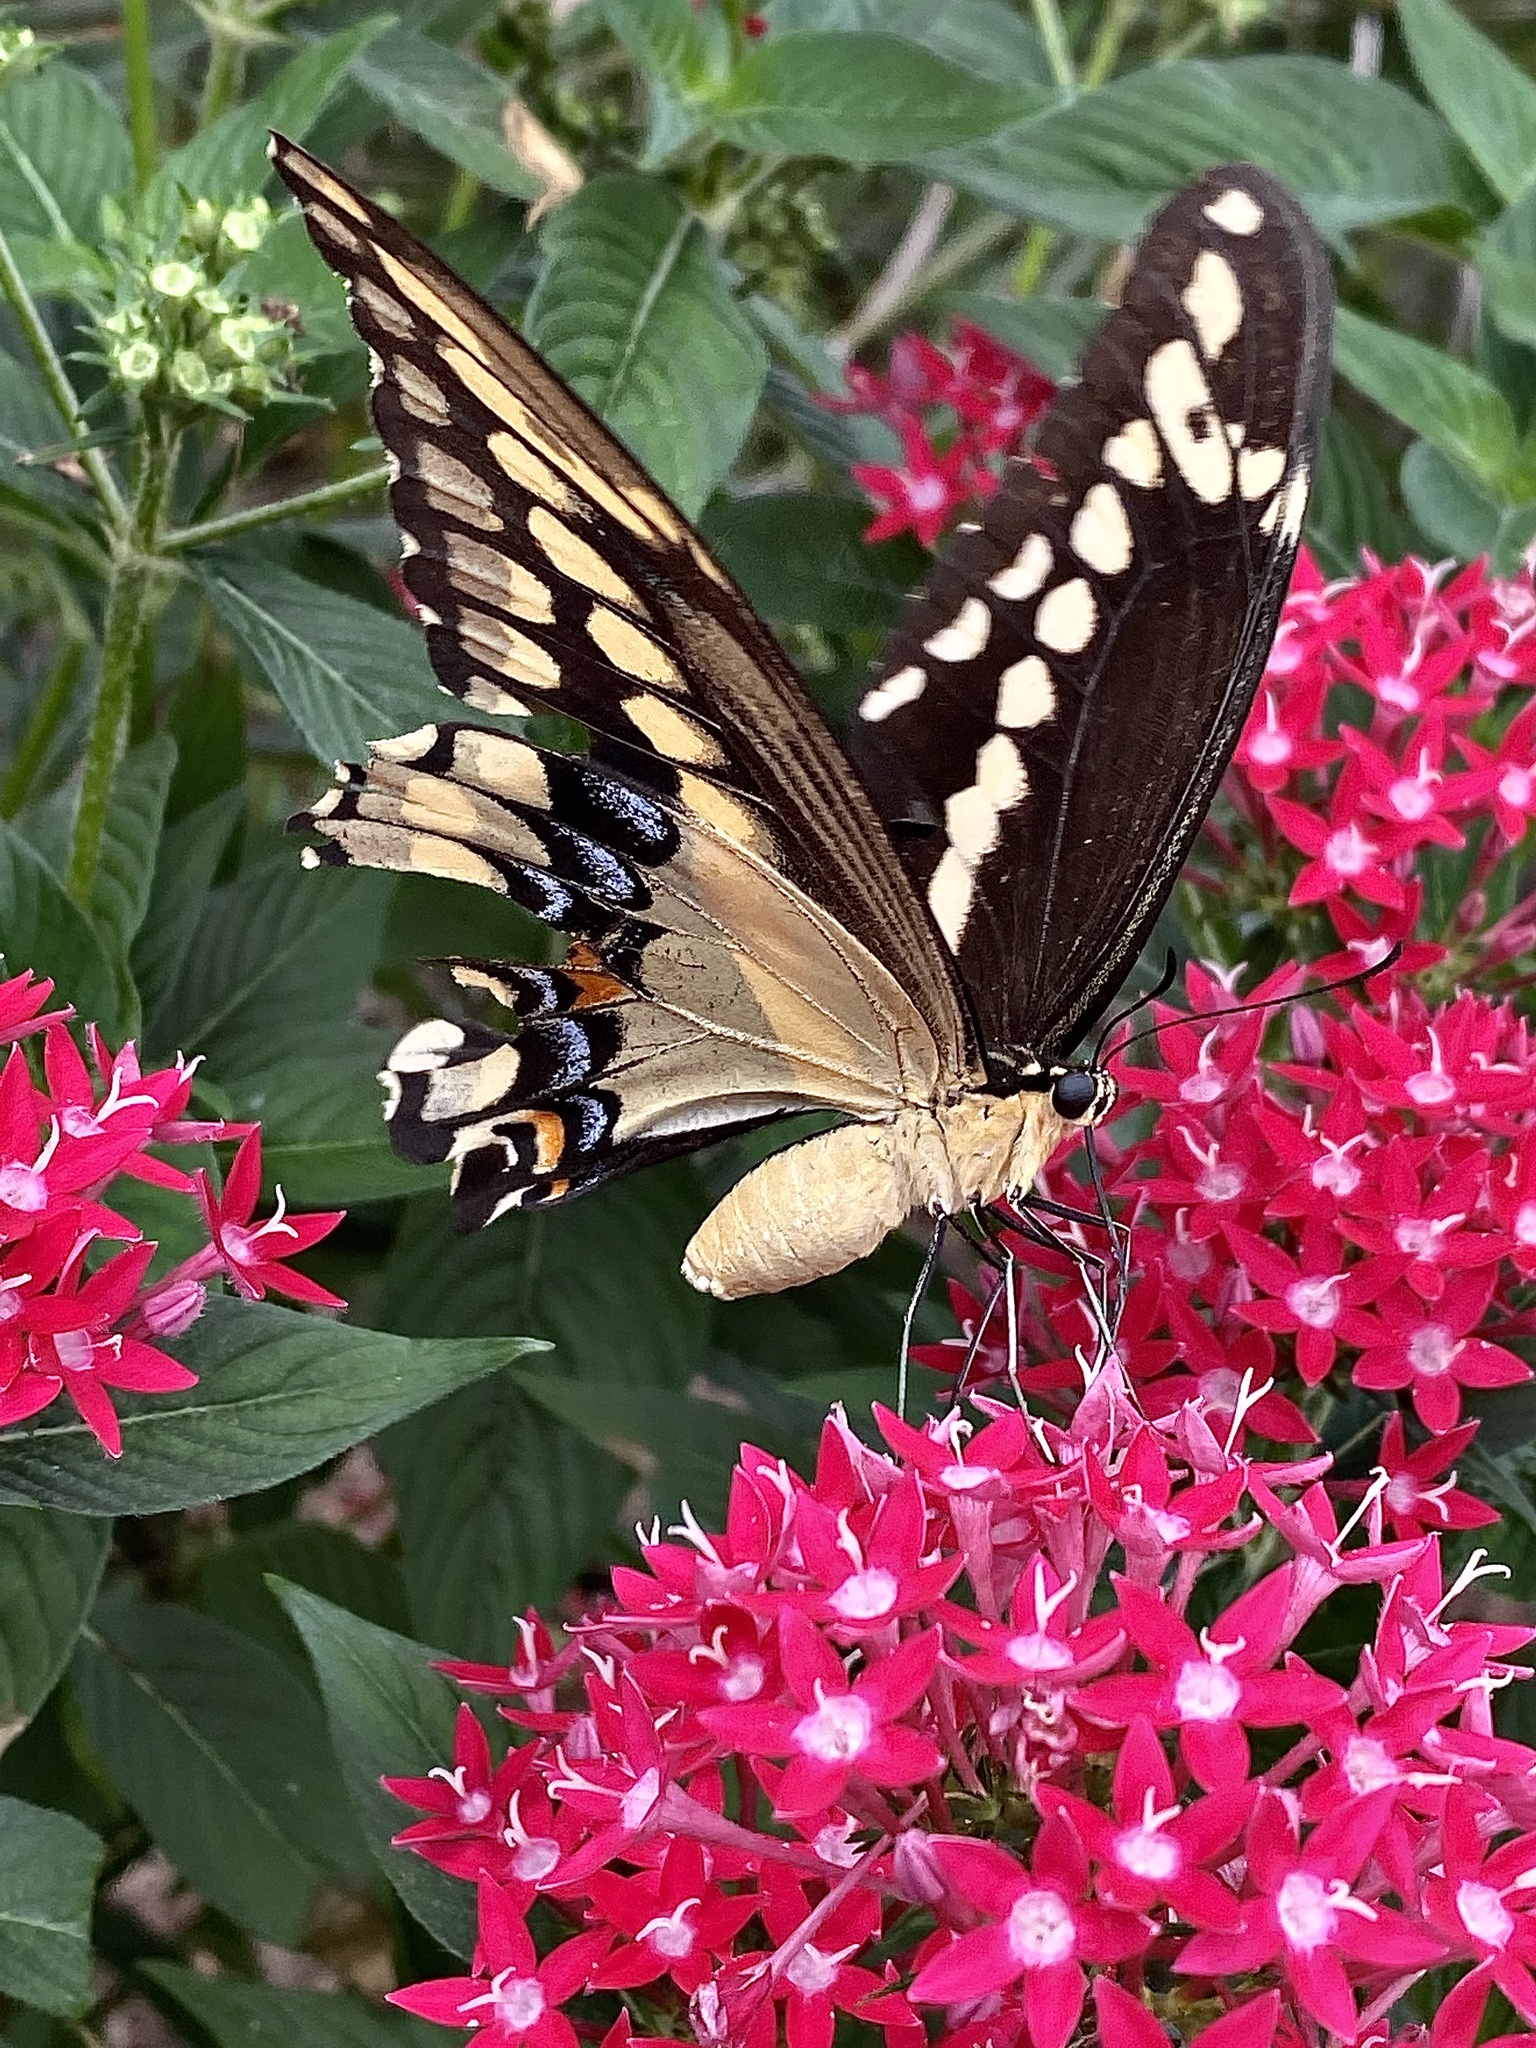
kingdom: Animalia
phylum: Arthropoda
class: Insecta
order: Lepidoptera
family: Papilionidae
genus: Papilio
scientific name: Papilio cresphontes
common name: Giant swallowtail
